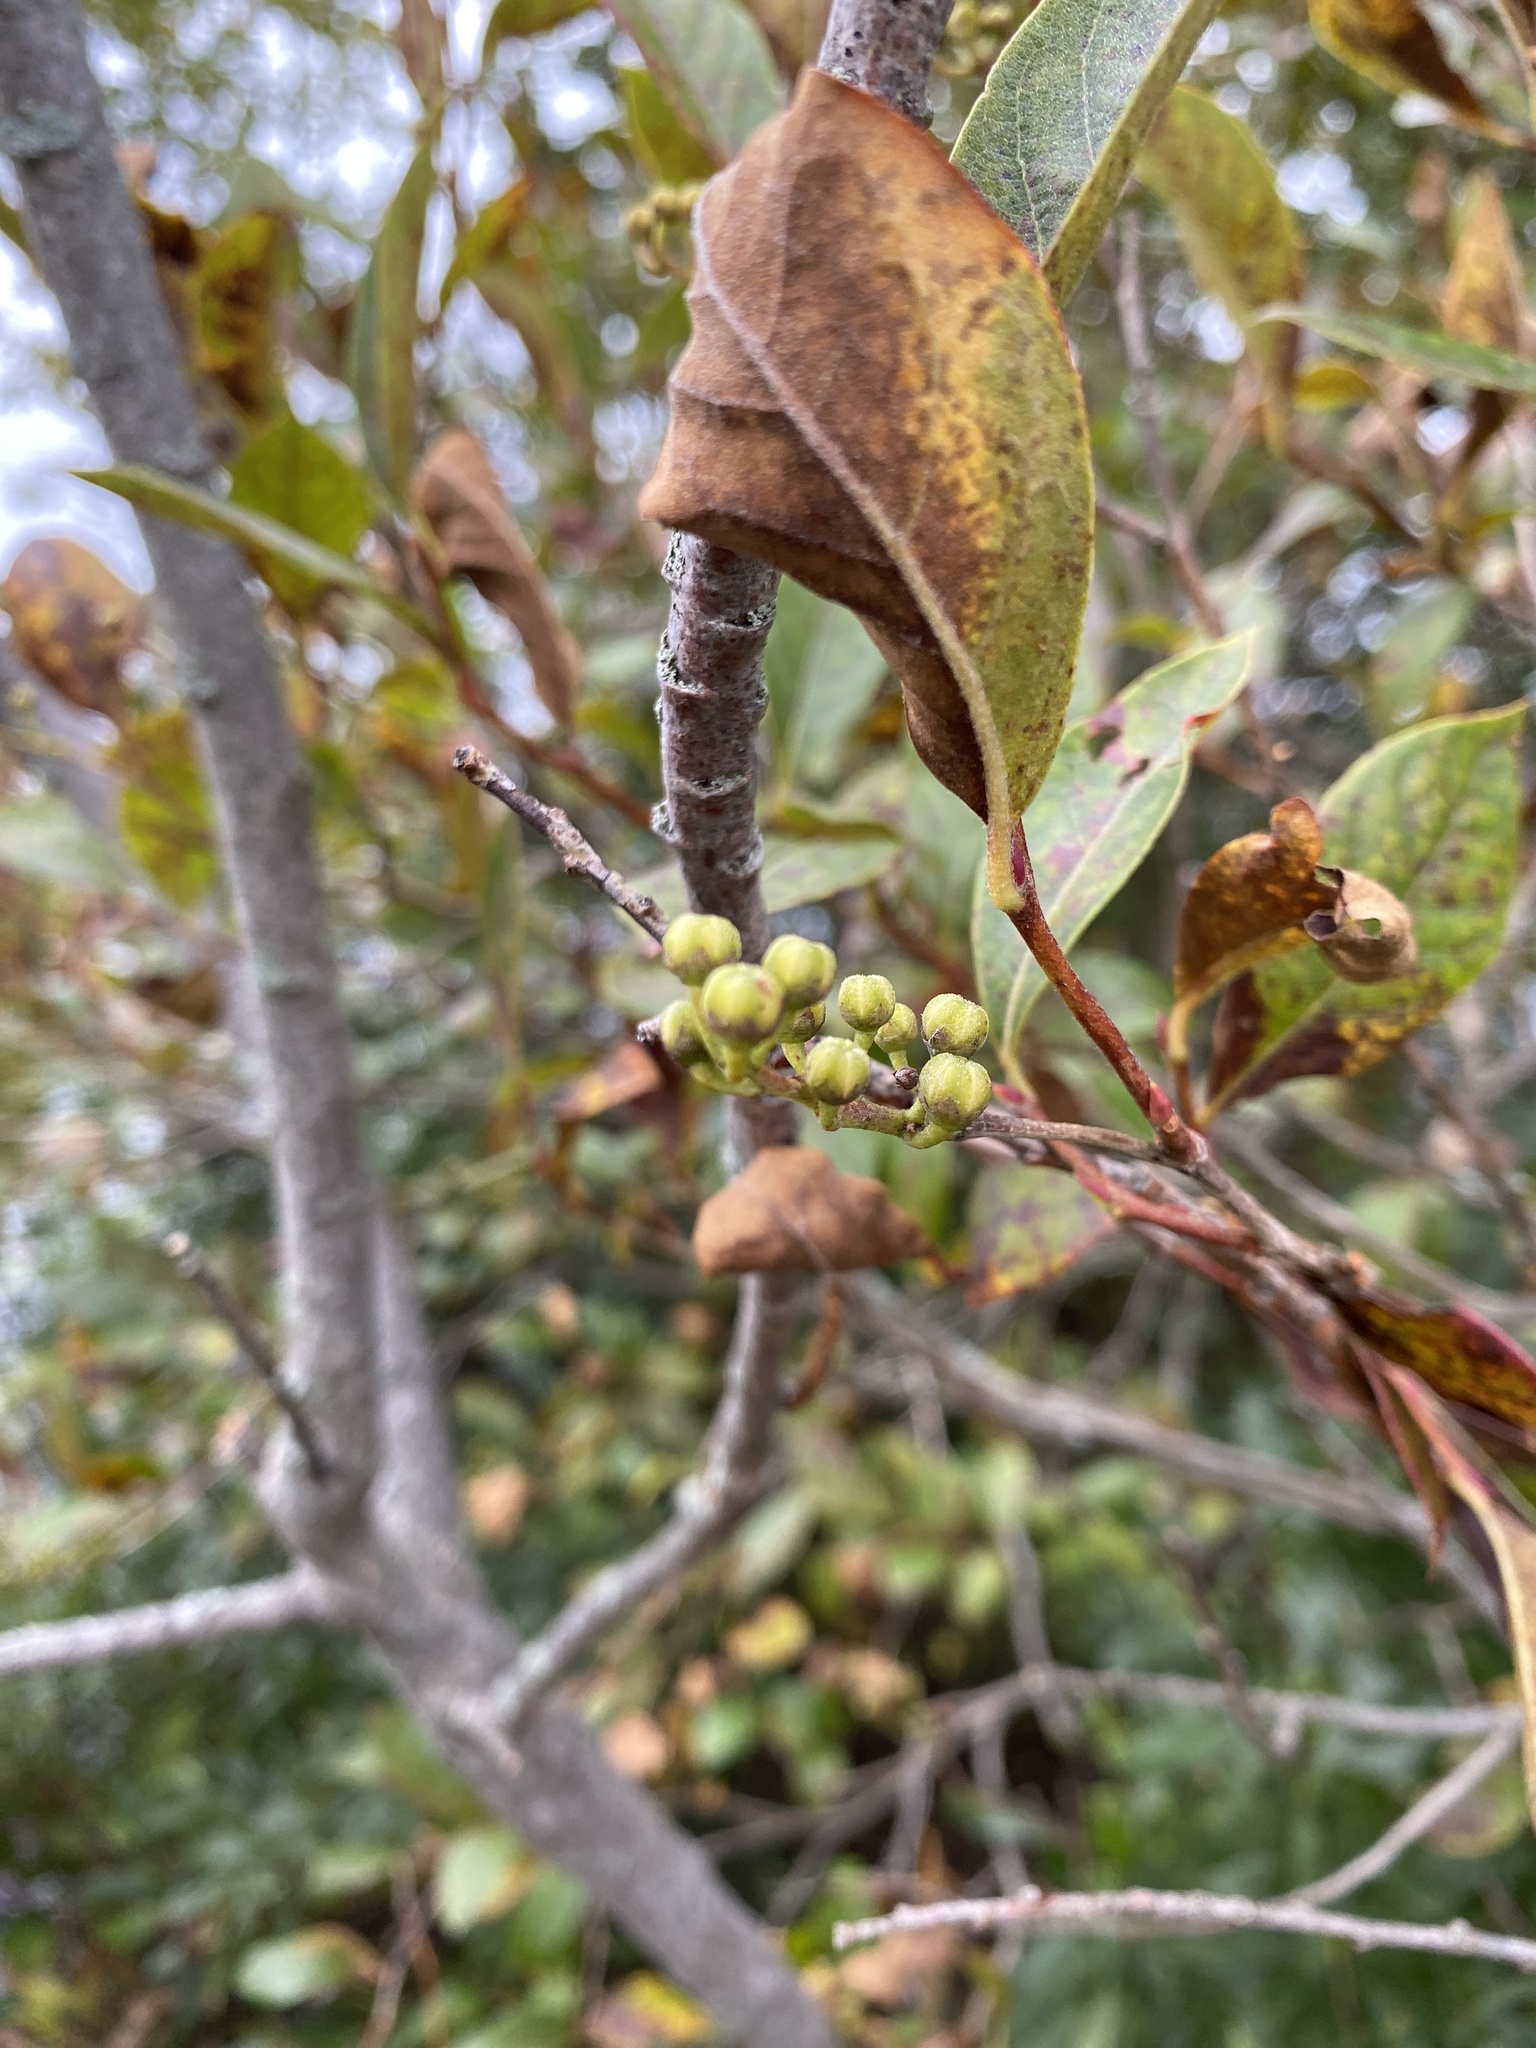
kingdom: Plantae
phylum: Tracheophyta
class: Magnoliopsida
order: Ericales
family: Ericaceae
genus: Lyonia
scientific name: Lyonia ligustrina
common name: Maleberry
